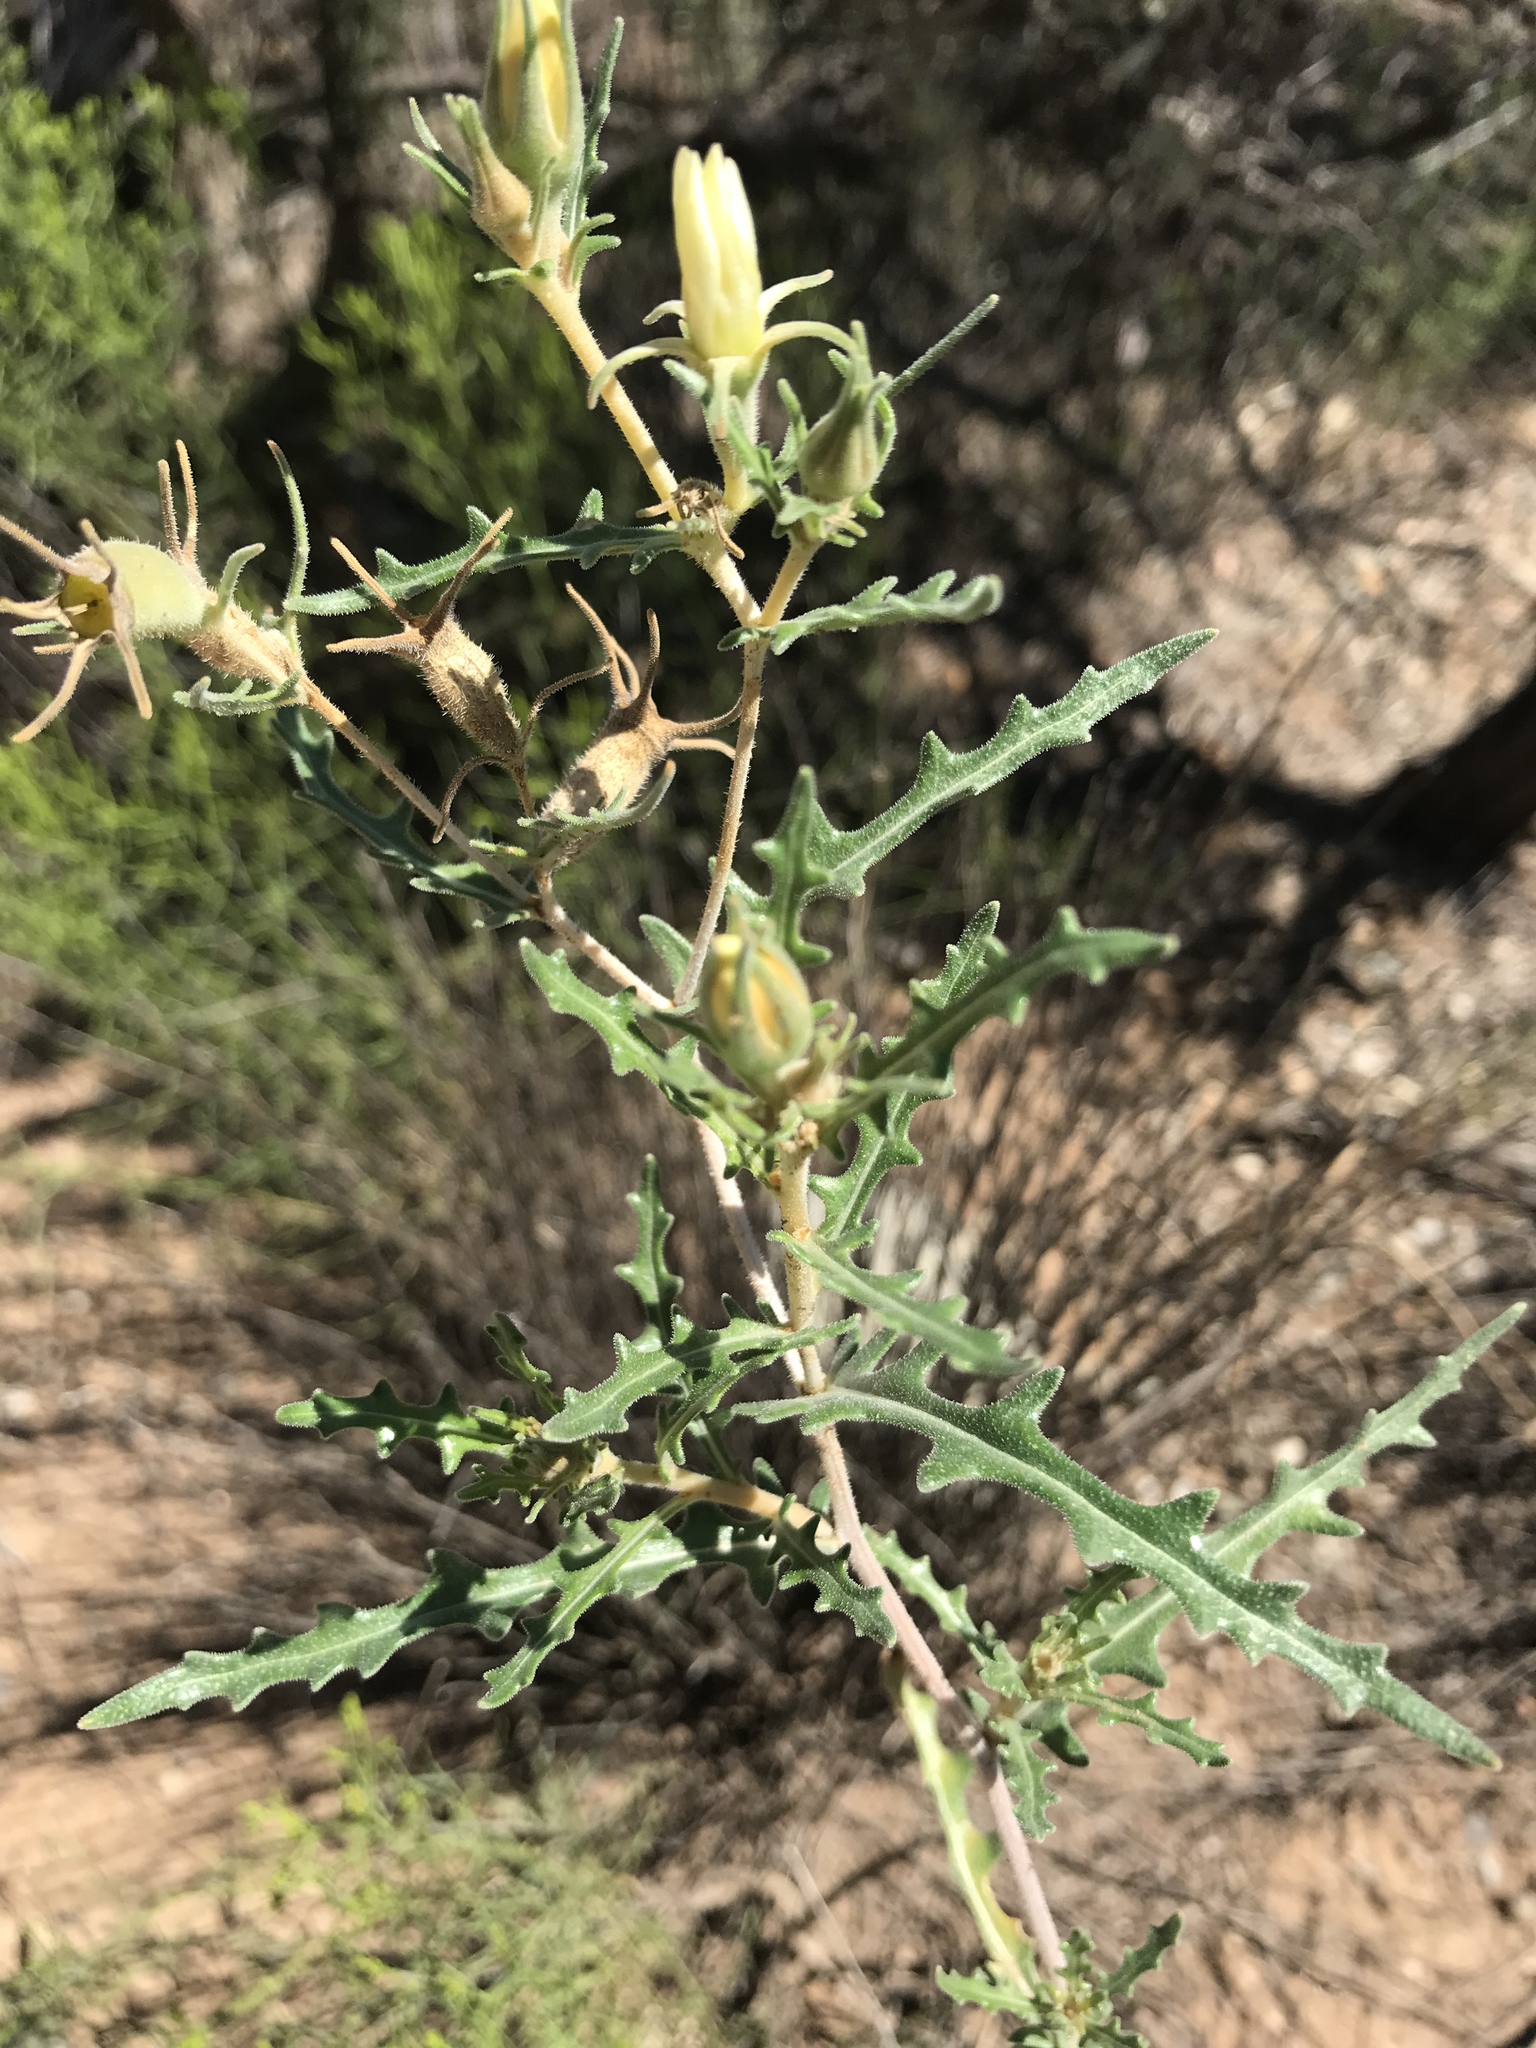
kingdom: Plantae
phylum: Tracheophyta
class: Magnoliopsida
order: Cornales
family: Loasaceae
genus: Mentzelia
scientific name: Mentzelia procera
